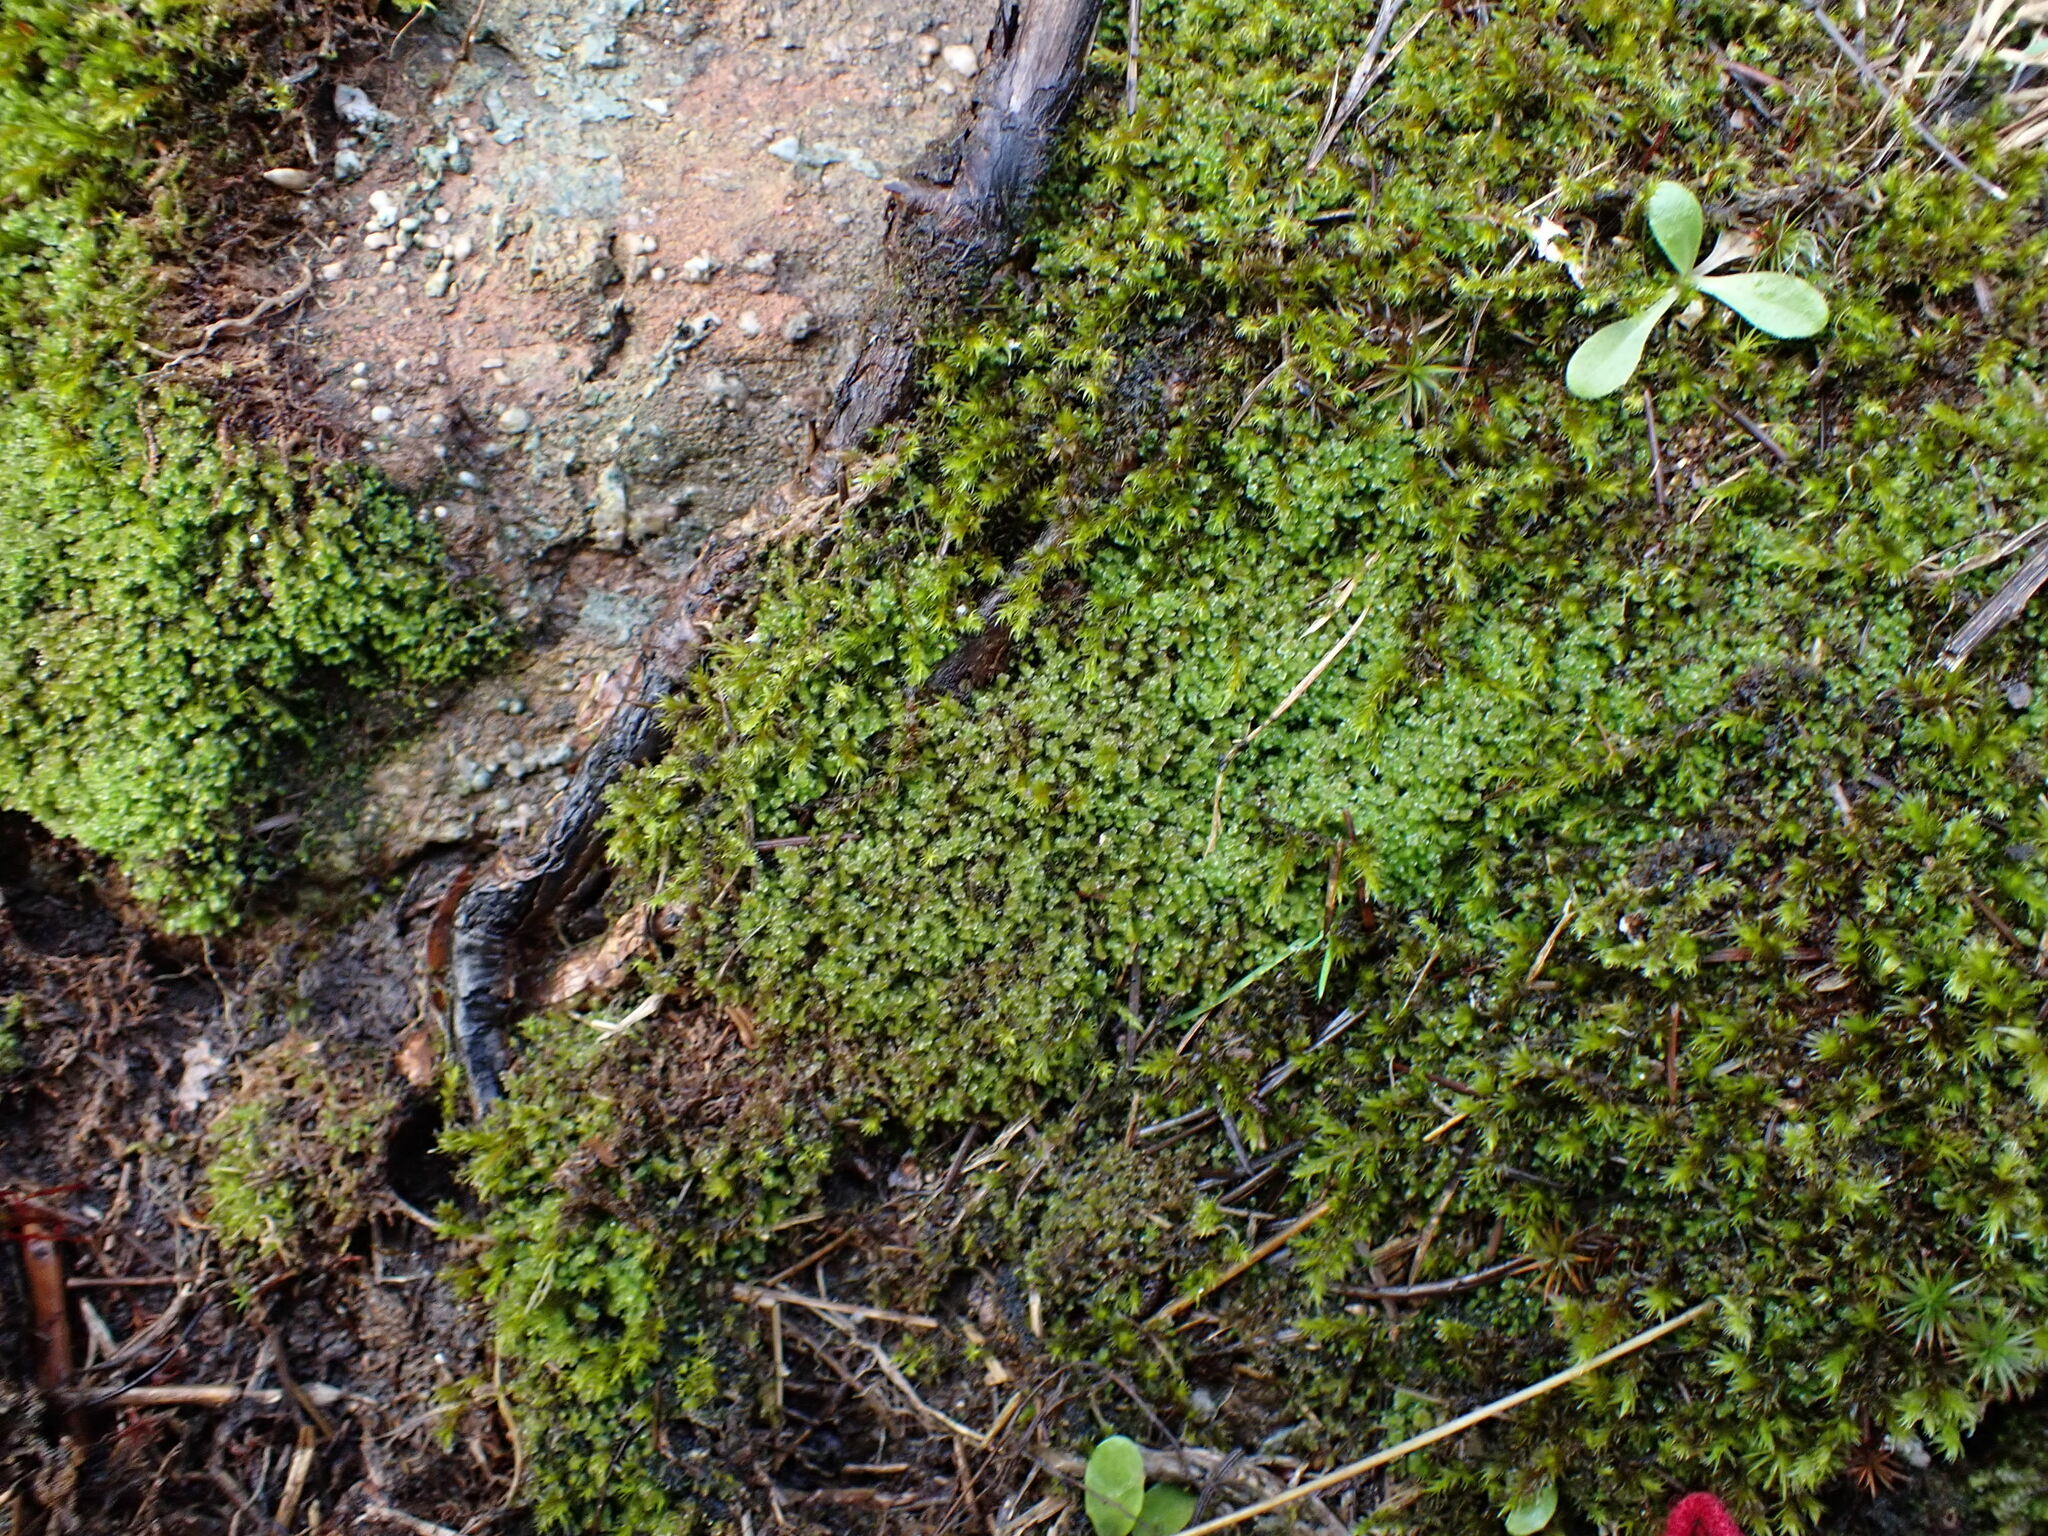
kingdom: Plantae
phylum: Marchantiophyta
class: Jungermanniopsida
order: Jungermanniales
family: Gymnomitriaceae
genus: Marsupella
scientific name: Marsupella emarginata
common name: Notched rustwort
